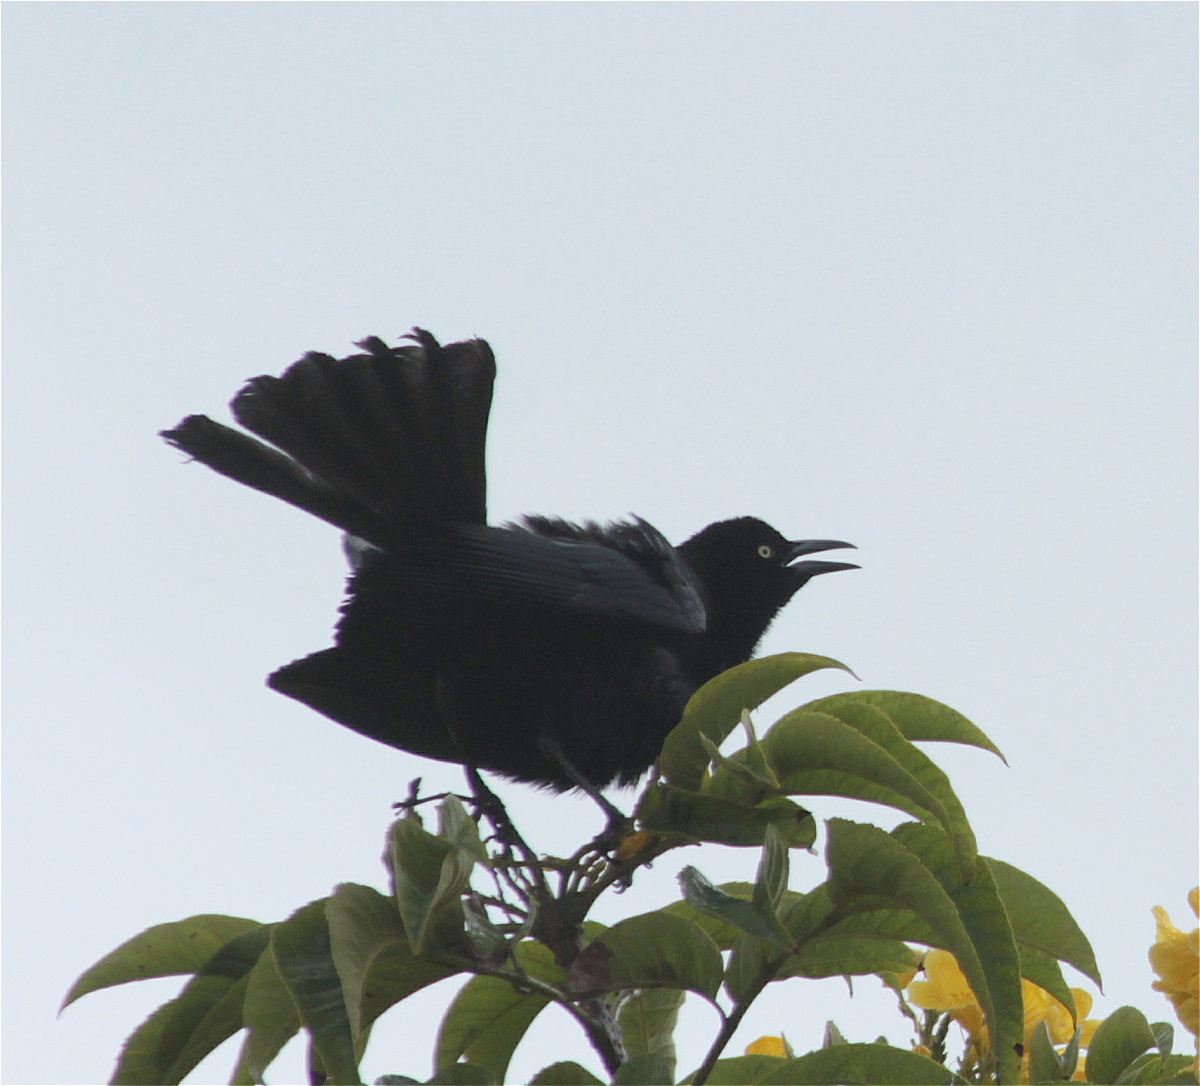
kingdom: Animalia
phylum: Chordata
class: Aves
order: Passeriformes
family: Icteridae
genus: Quiscalus
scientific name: Quiscalus lugubris
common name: Carib grackle
